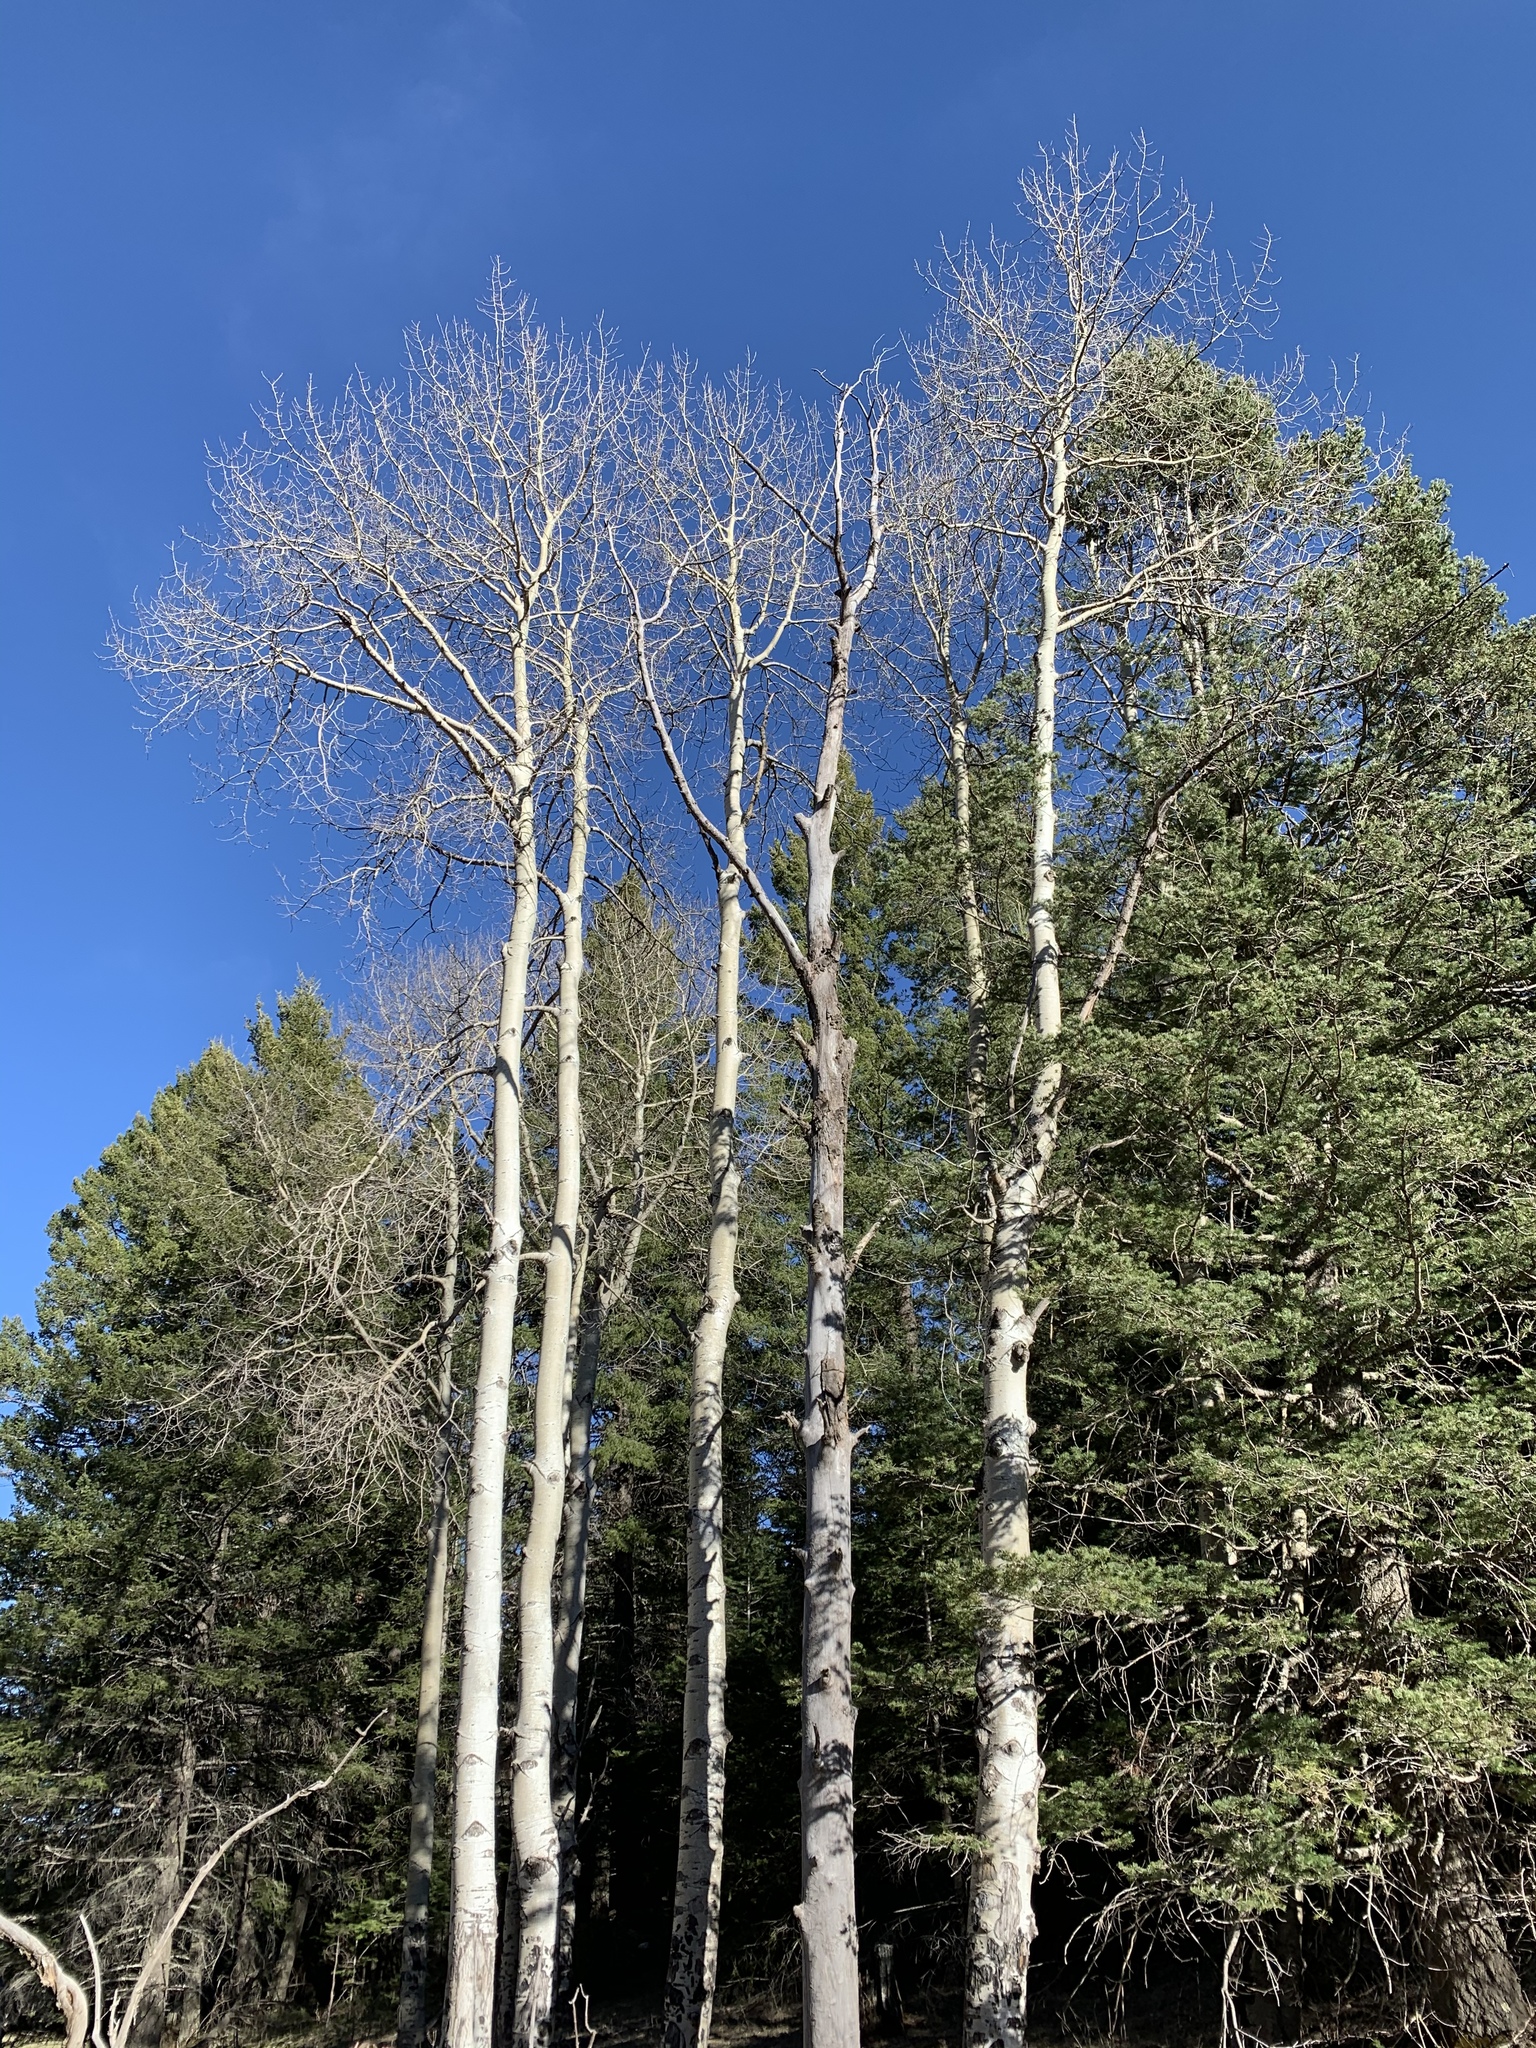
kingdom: Plantae
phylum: Tracheophyta
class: Magnoliopsida
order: Malpighiales
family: Salicaceae
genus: Populus
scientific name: Populus tremuloides
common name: Quaking aspen
